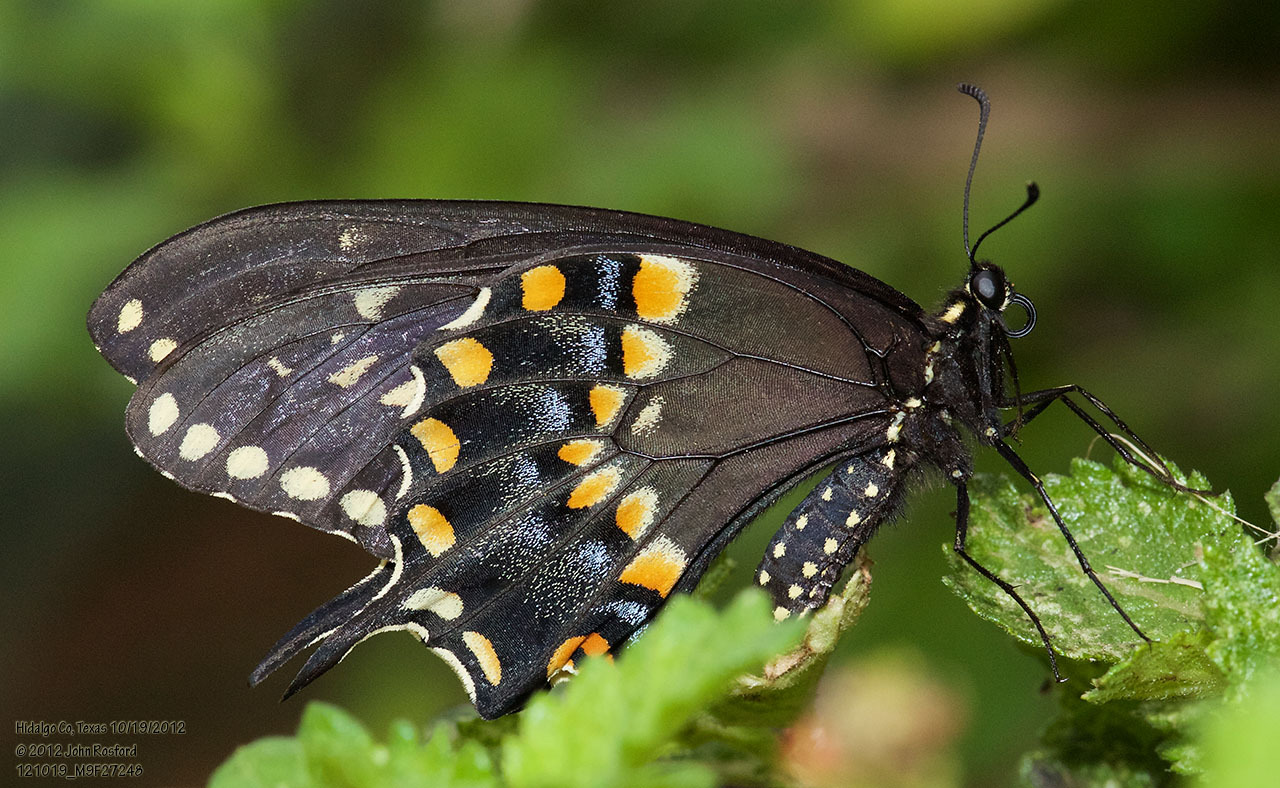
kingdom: Animalia
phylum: Arthropoda
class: Insecta
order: Lepidoptera
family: Papilionidae
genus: Papilio
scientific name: Papilio polyxenes
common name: Black swallowtail
